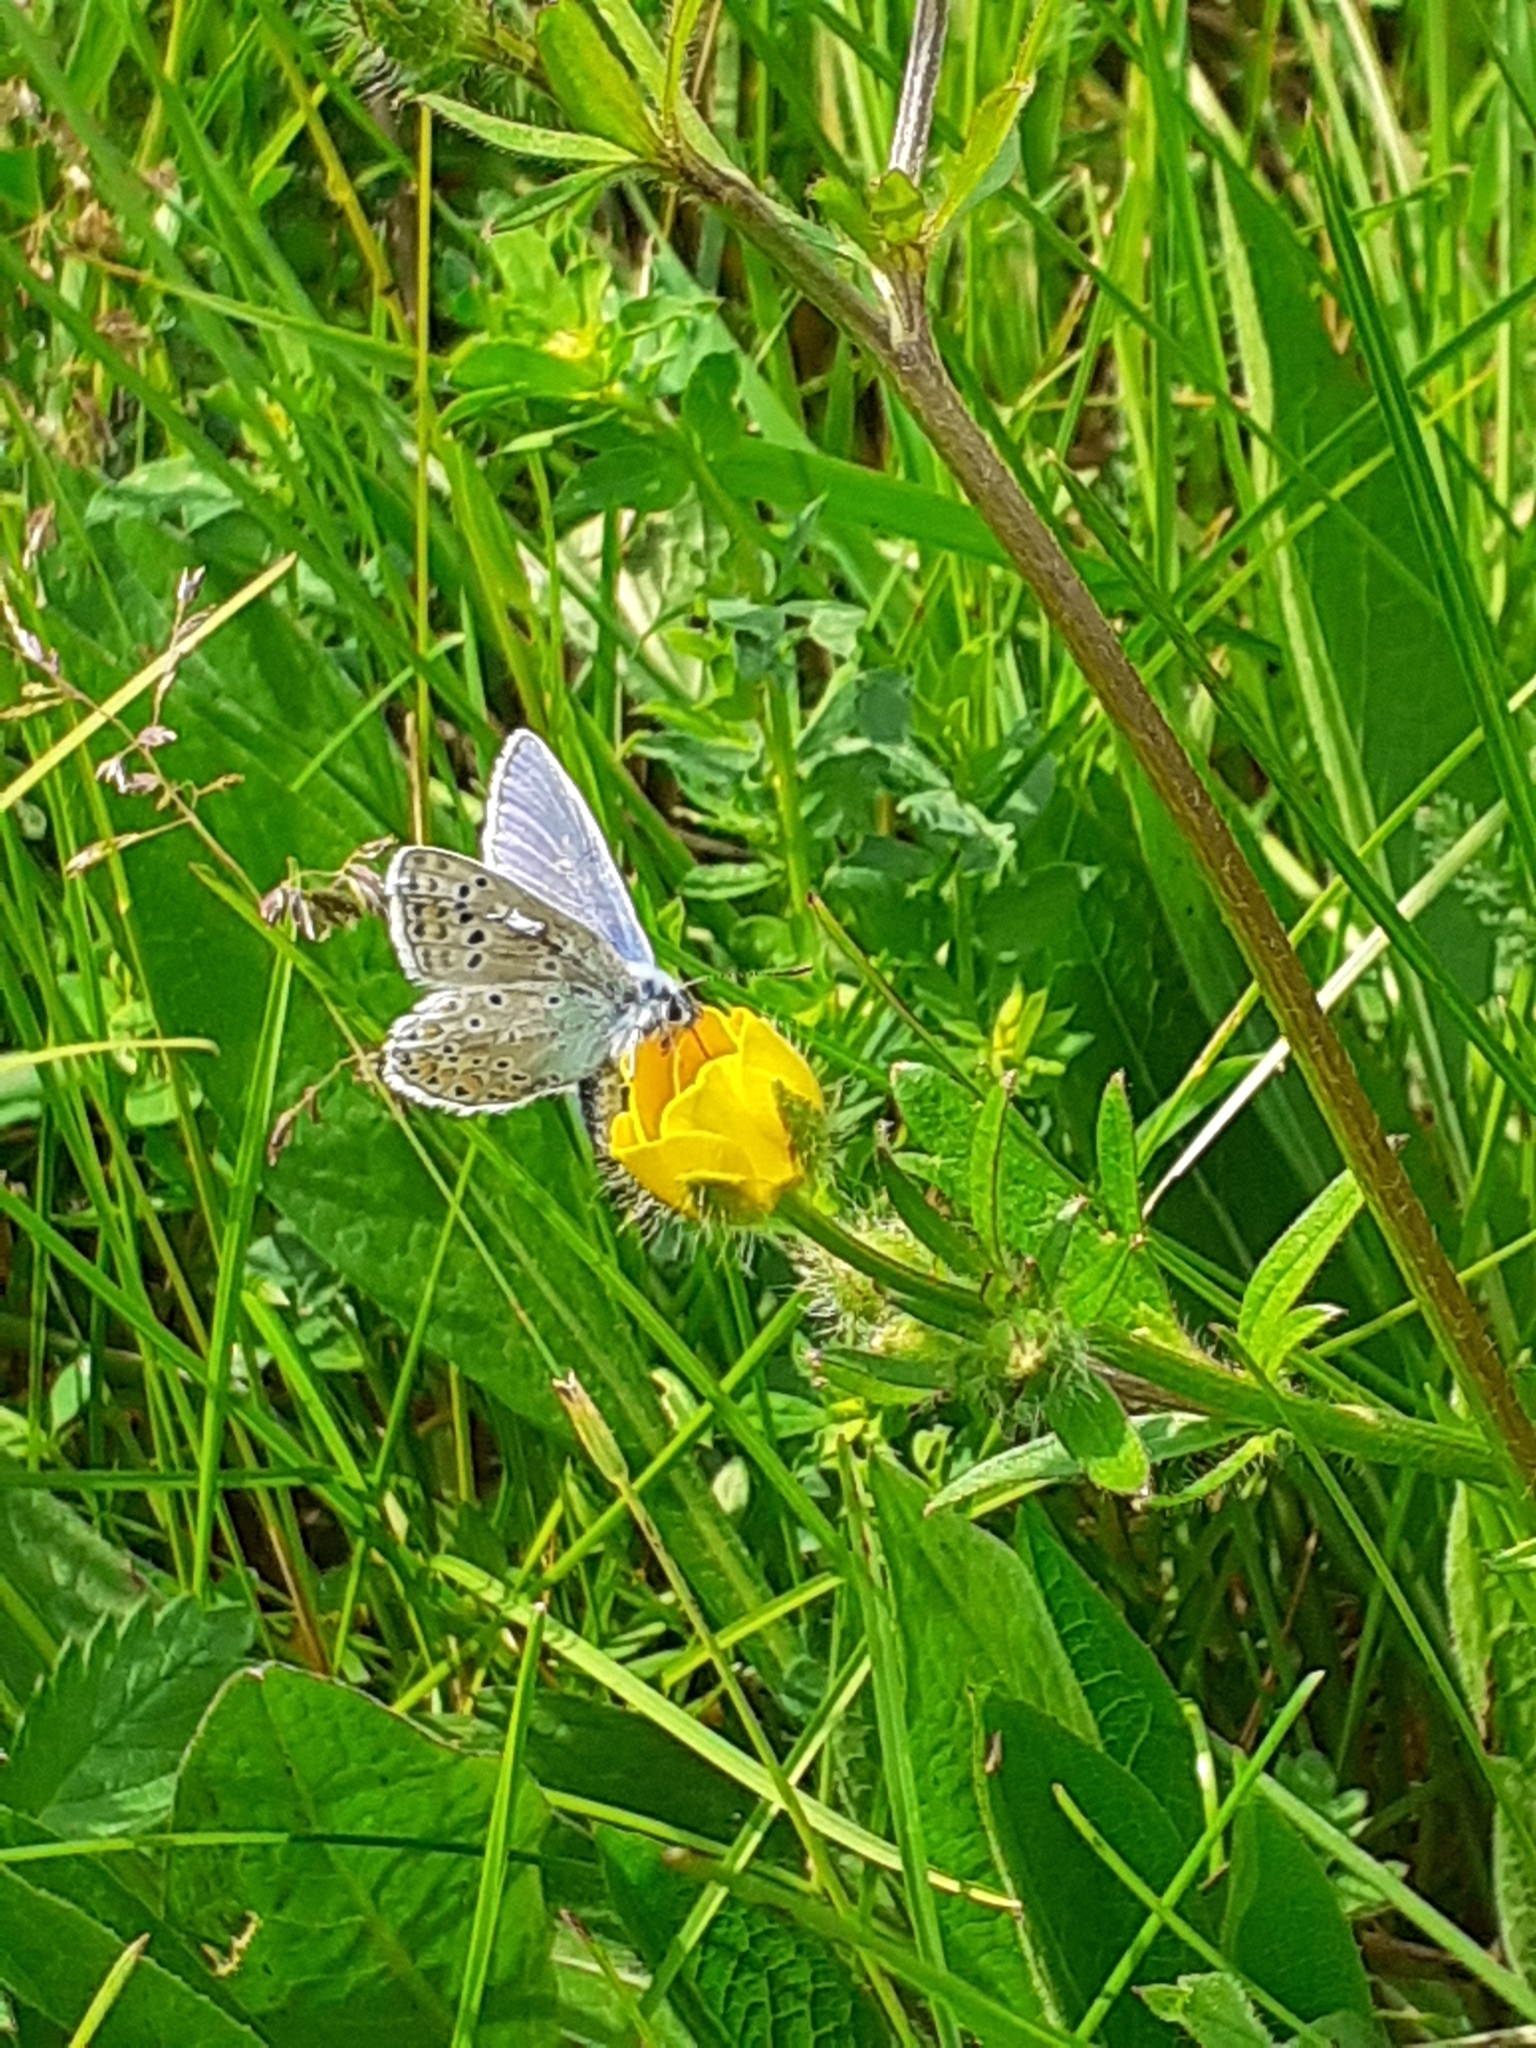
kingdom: Animalia
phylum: Arthropoda
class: Insecta
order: Lepidoptera
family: Lycaenidae
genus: Polyommatus
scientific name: Polyommatus icarus
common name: Common blue
